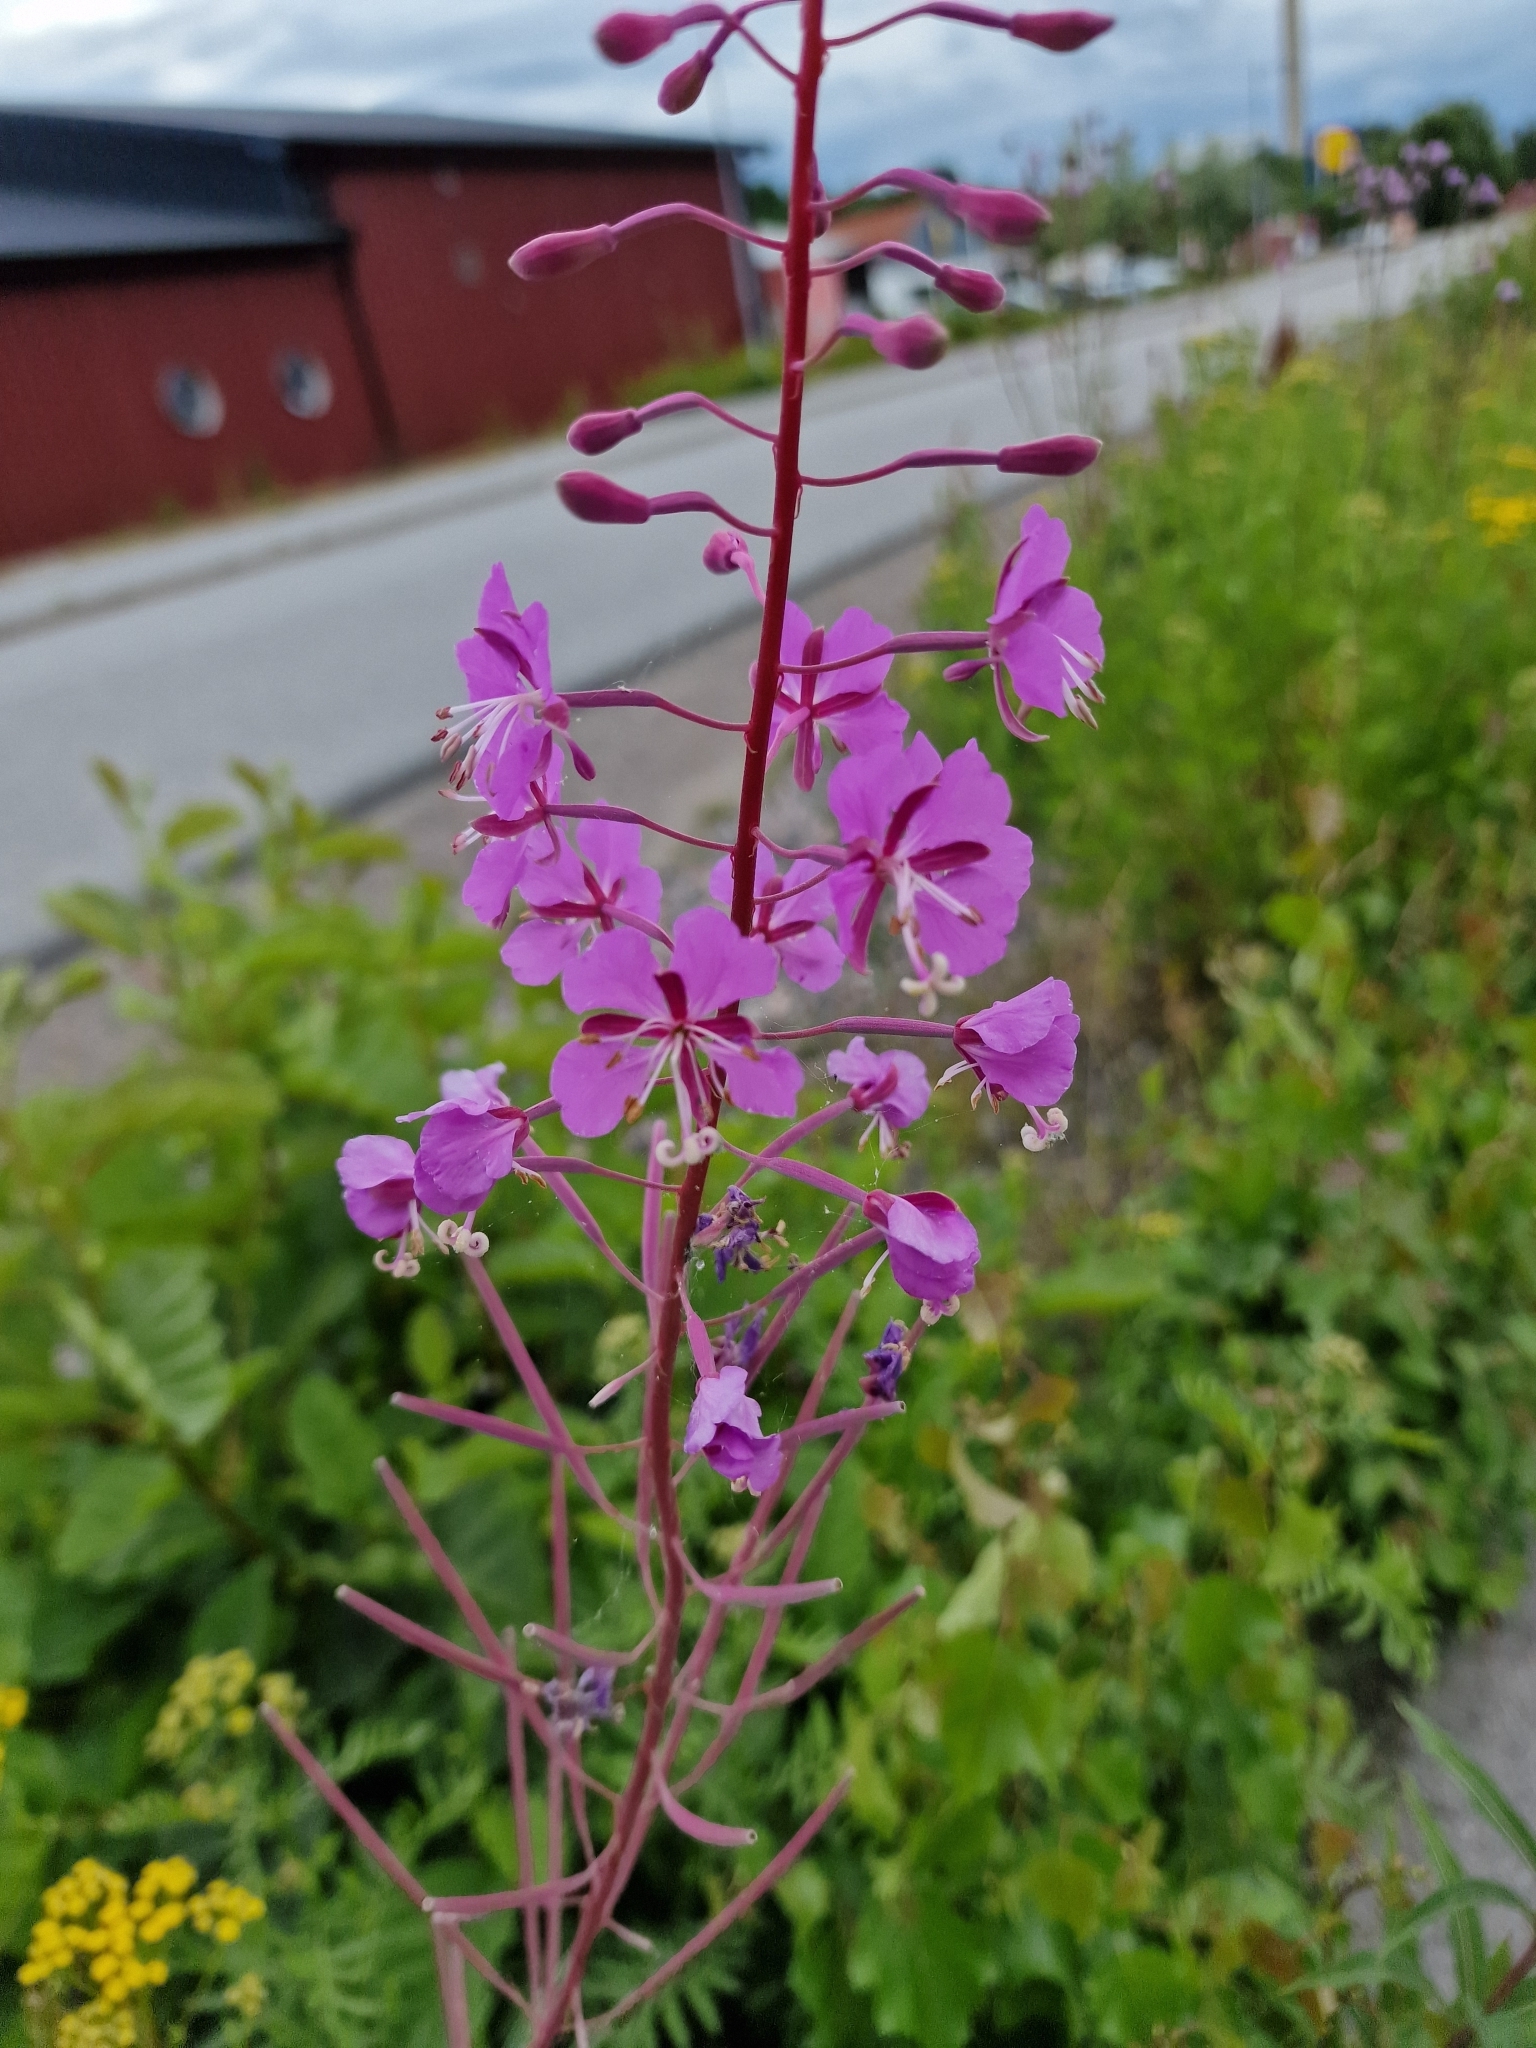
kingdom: Plantae
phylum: Tracheophyta
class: Magnoliopsida
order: Myrtales
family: Onagraceae
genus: Chamaenerion
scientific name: Chamaenerion angustifolium
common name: Fireweed
